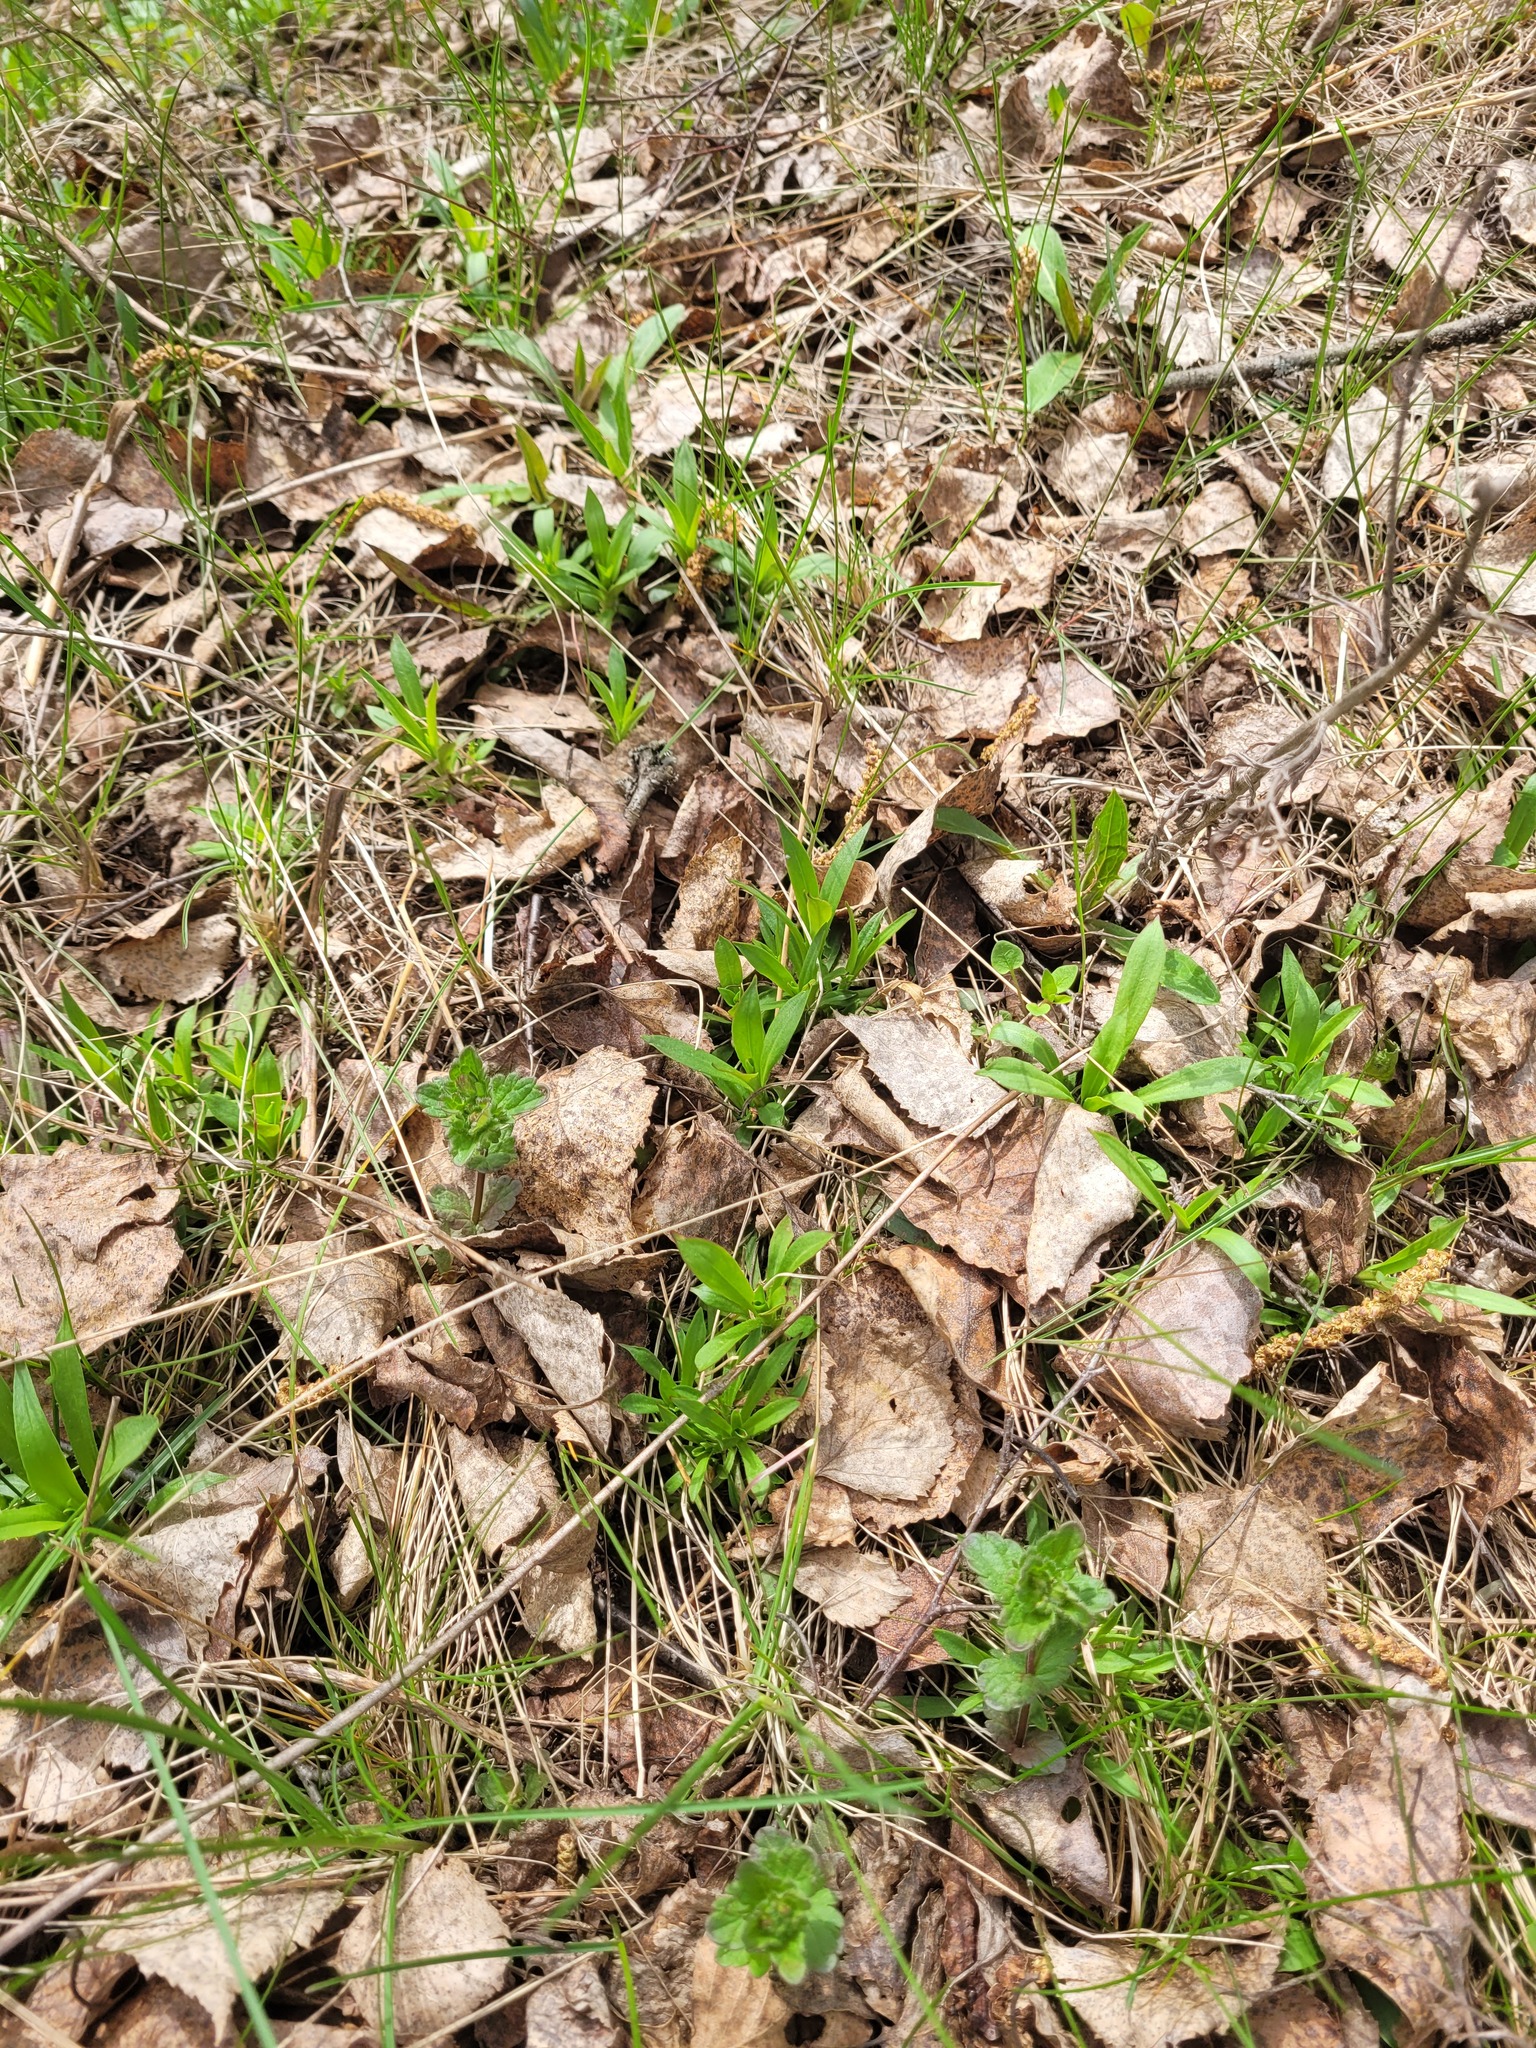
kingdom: Plantae
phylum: Tracheophyta
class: Magnoliopsida
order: Caryophyllales
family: Caryophyllaceae
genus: Viscaria
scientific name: Viscaria vulgaris
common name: Clammy campion
